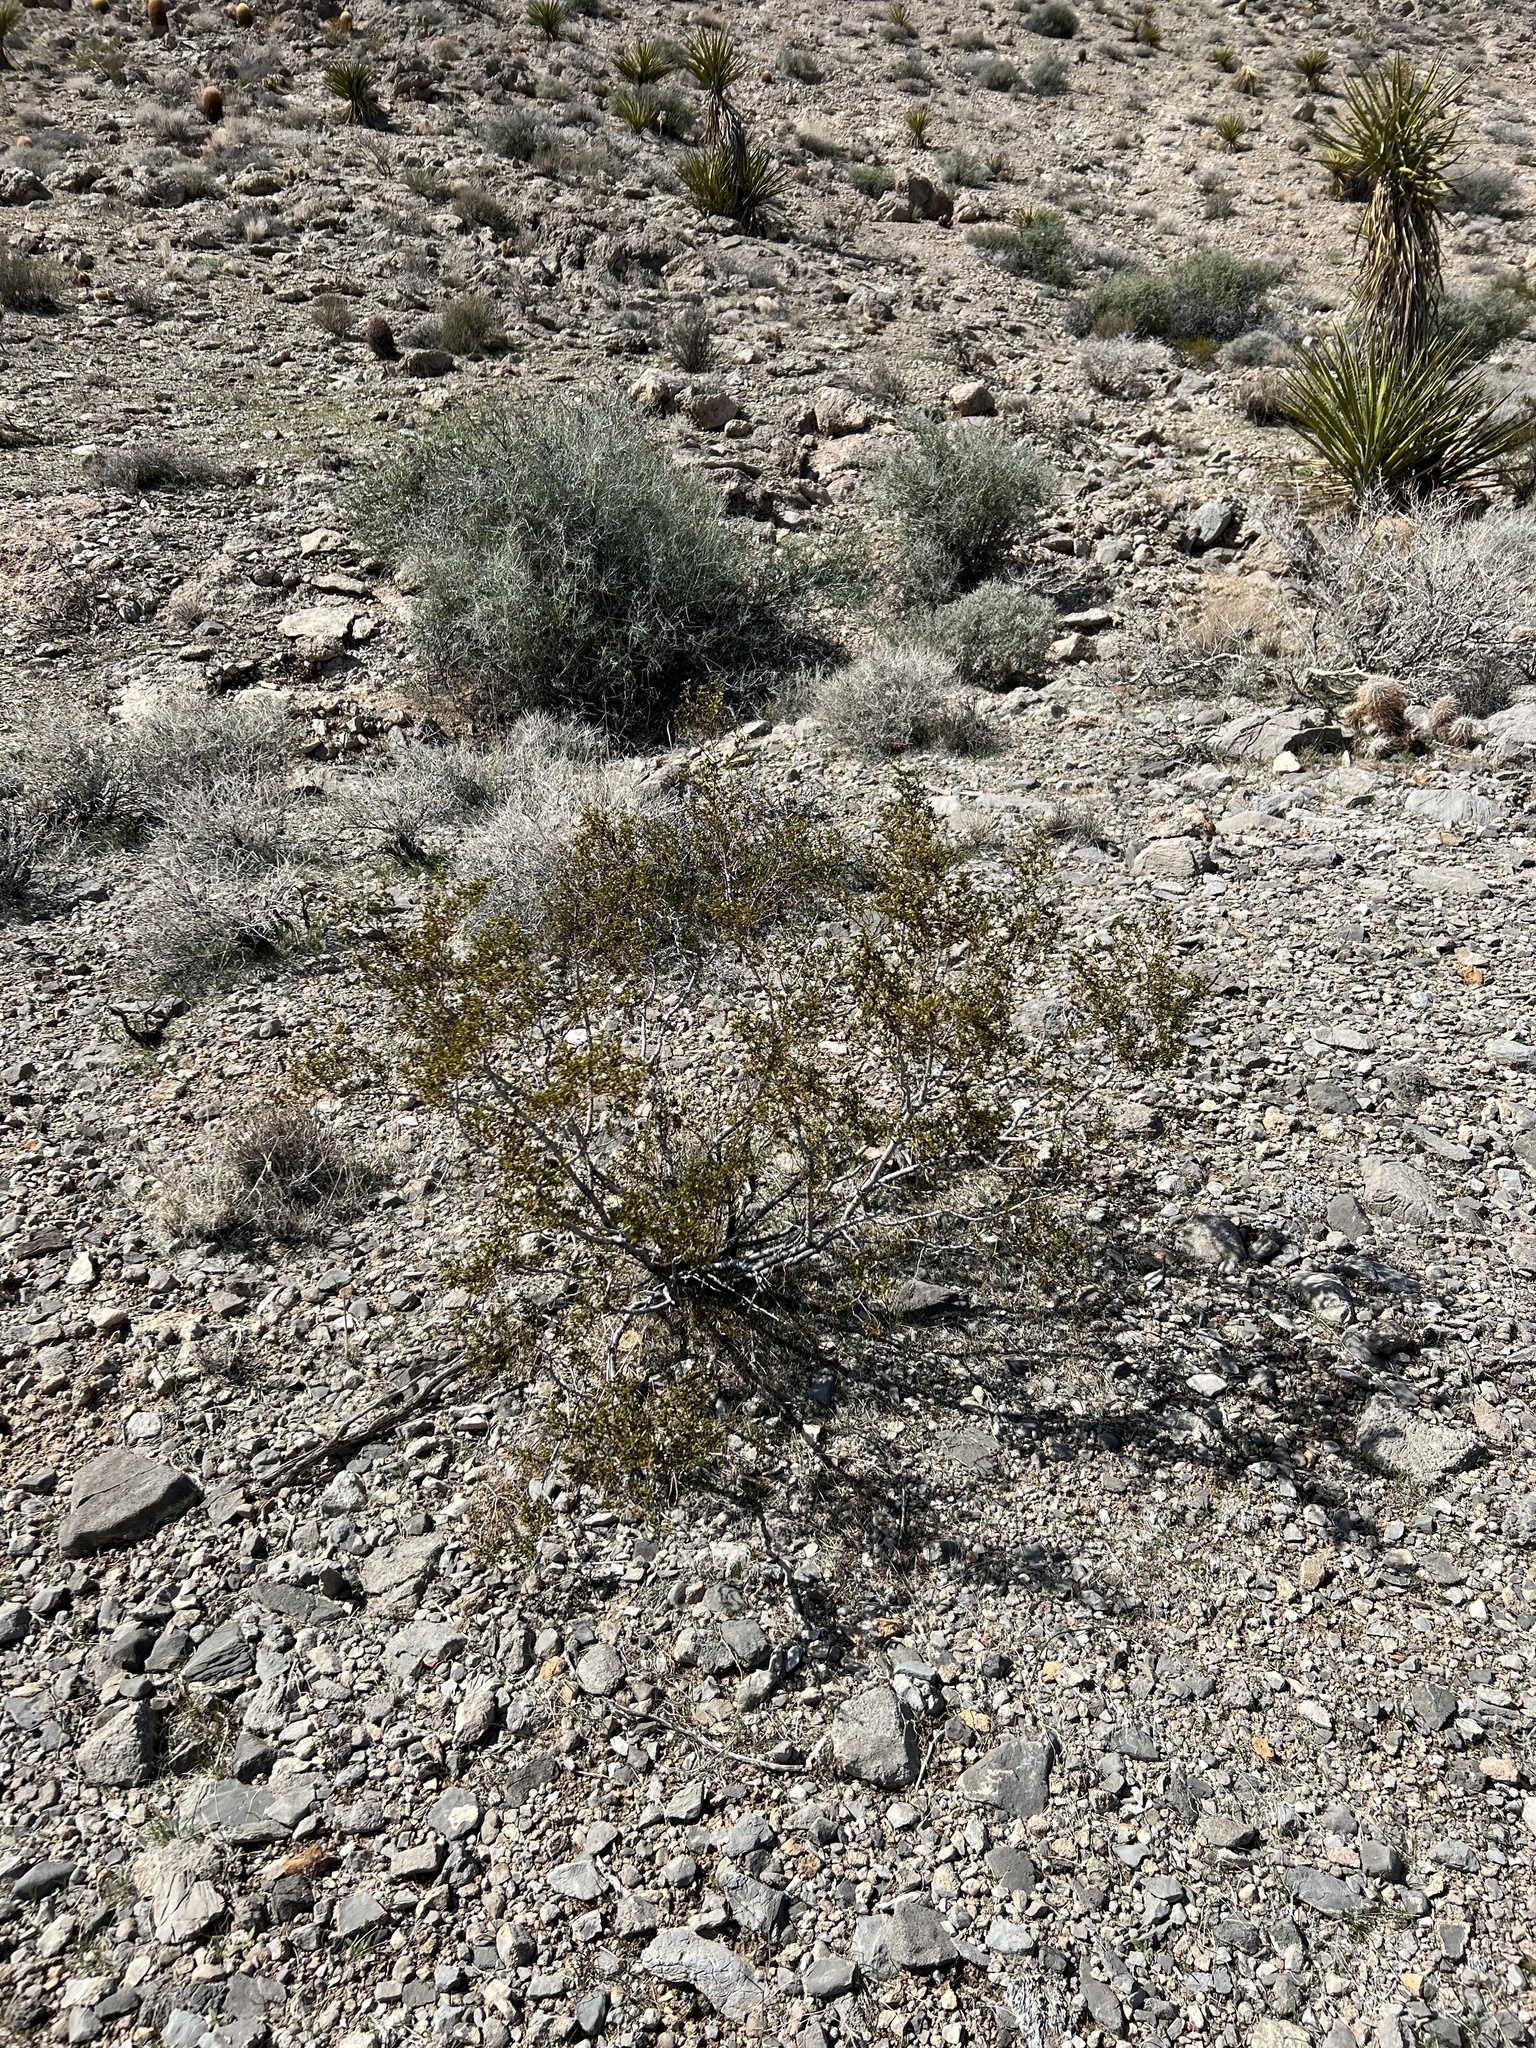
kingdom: Plantae
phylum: Tracheophyta
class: Magnoliopsida
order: Zygophyllales
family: Zygophyllaceae
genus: Larrea
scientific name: Larrea tridentata
